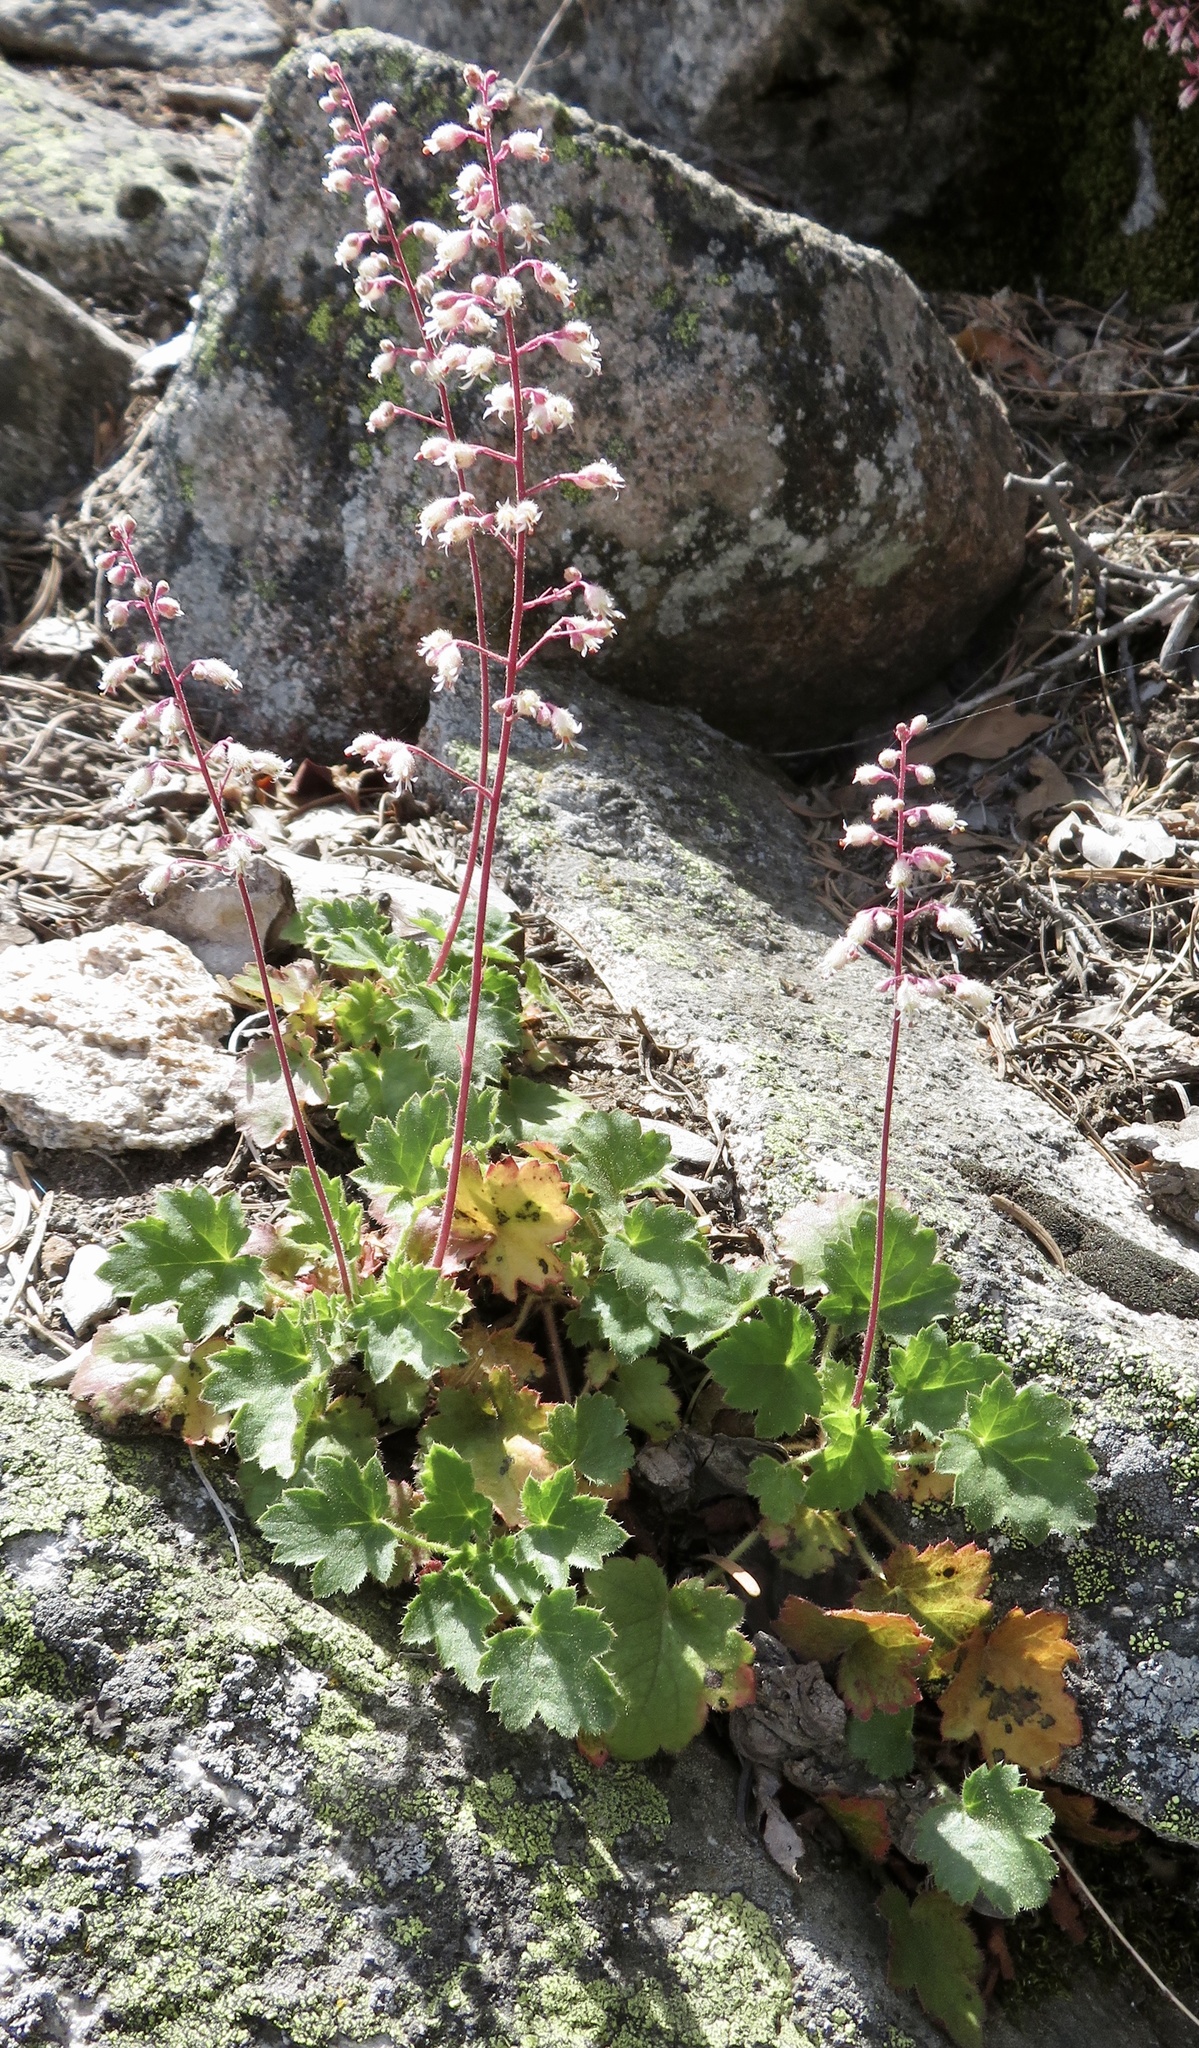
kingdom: Plantae
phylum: Tracheophyta
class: Magnoliopsida
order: Saxifragales
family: Saxifragaceae
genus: Heuchera
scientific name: Heuchera rubescens
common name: Jack-o'the-rocks
